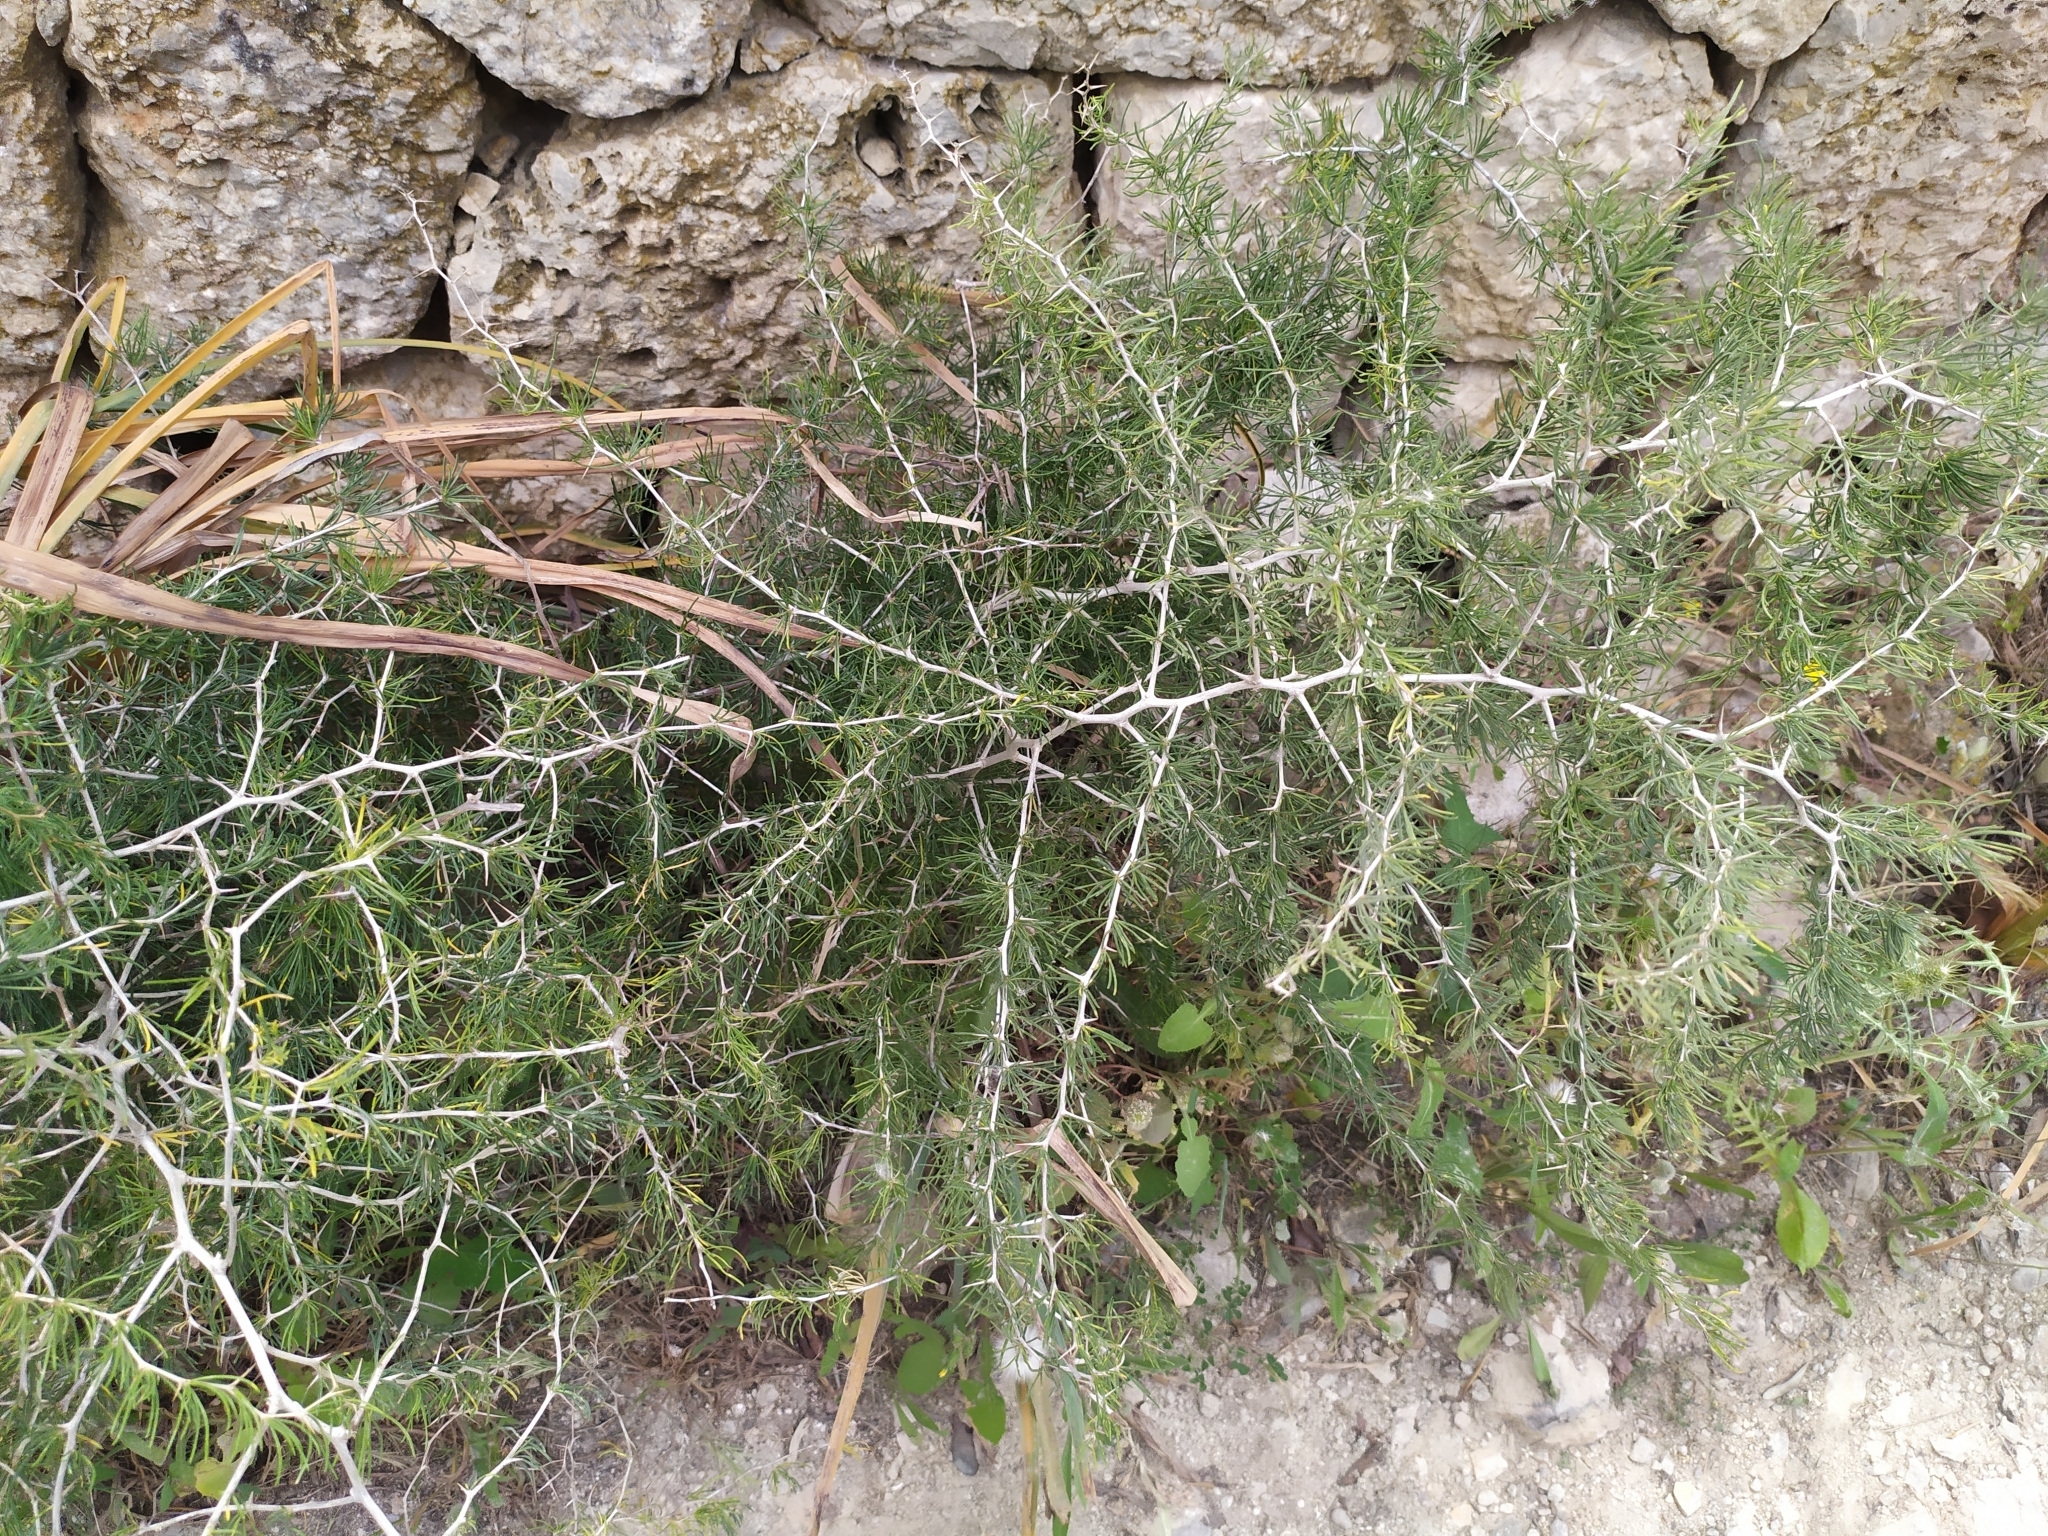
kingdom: Plantae
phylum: Tracheophyta
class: Liliopsida
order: Asparagales
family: Asparagaceae
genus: Asparagus
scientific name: Asparagus albus
